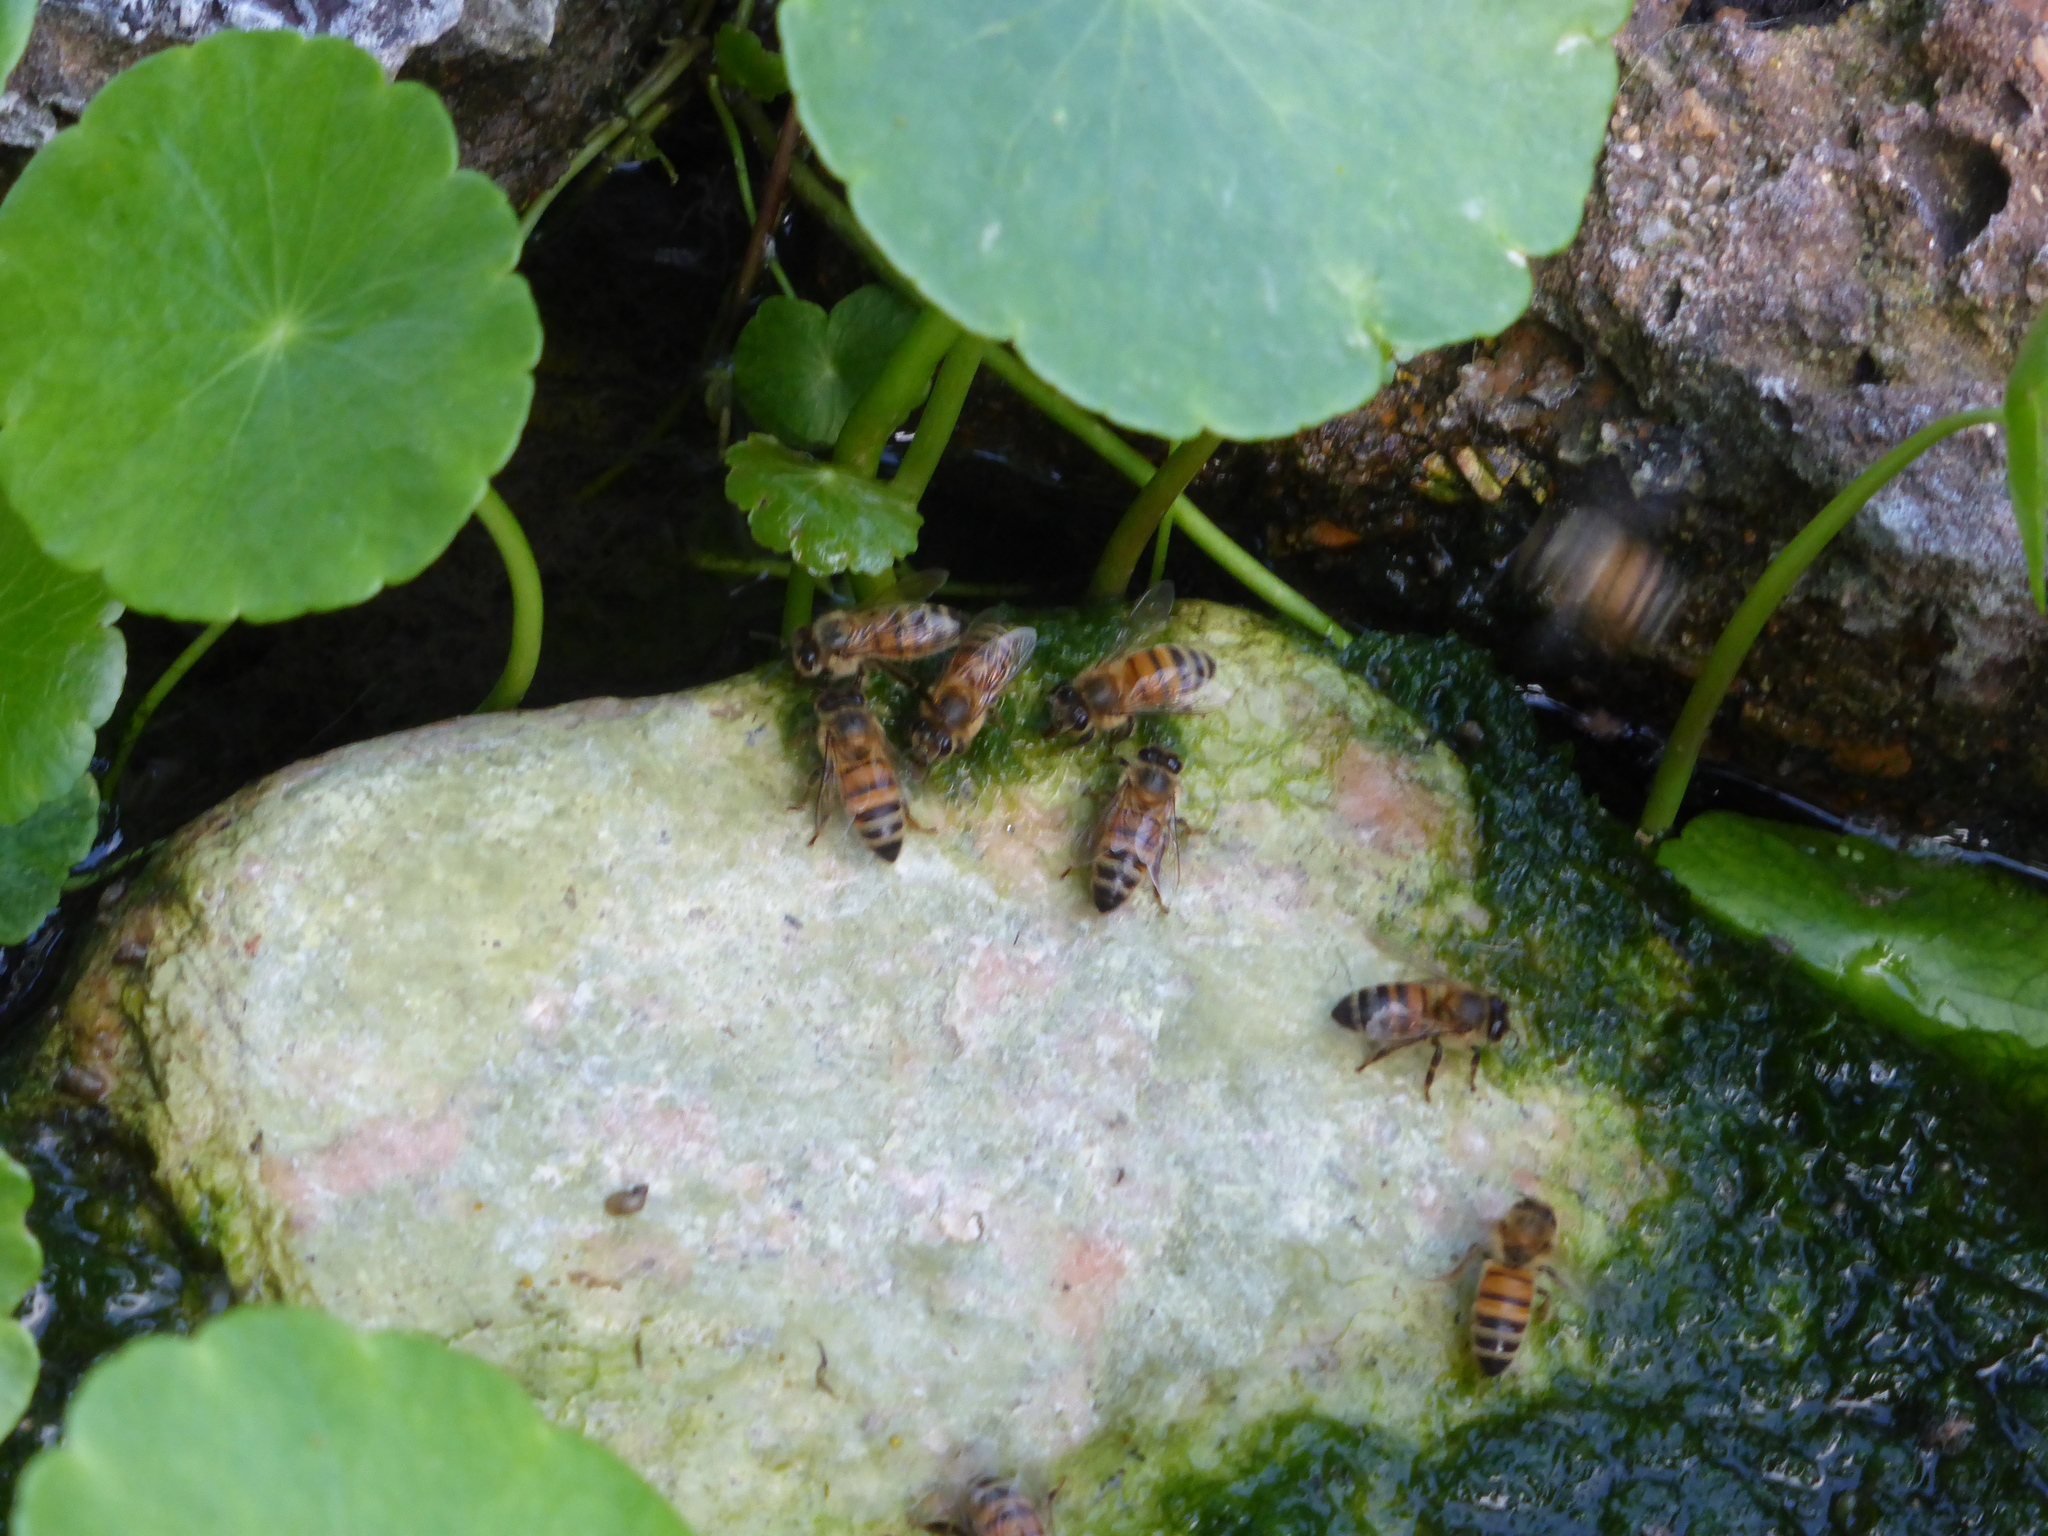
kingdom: Animalia
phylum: Arthropoda
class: Insecta
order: Hymenoptera
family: Apidae
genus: Apis
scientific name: Apis mellifera
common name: Honey bee
